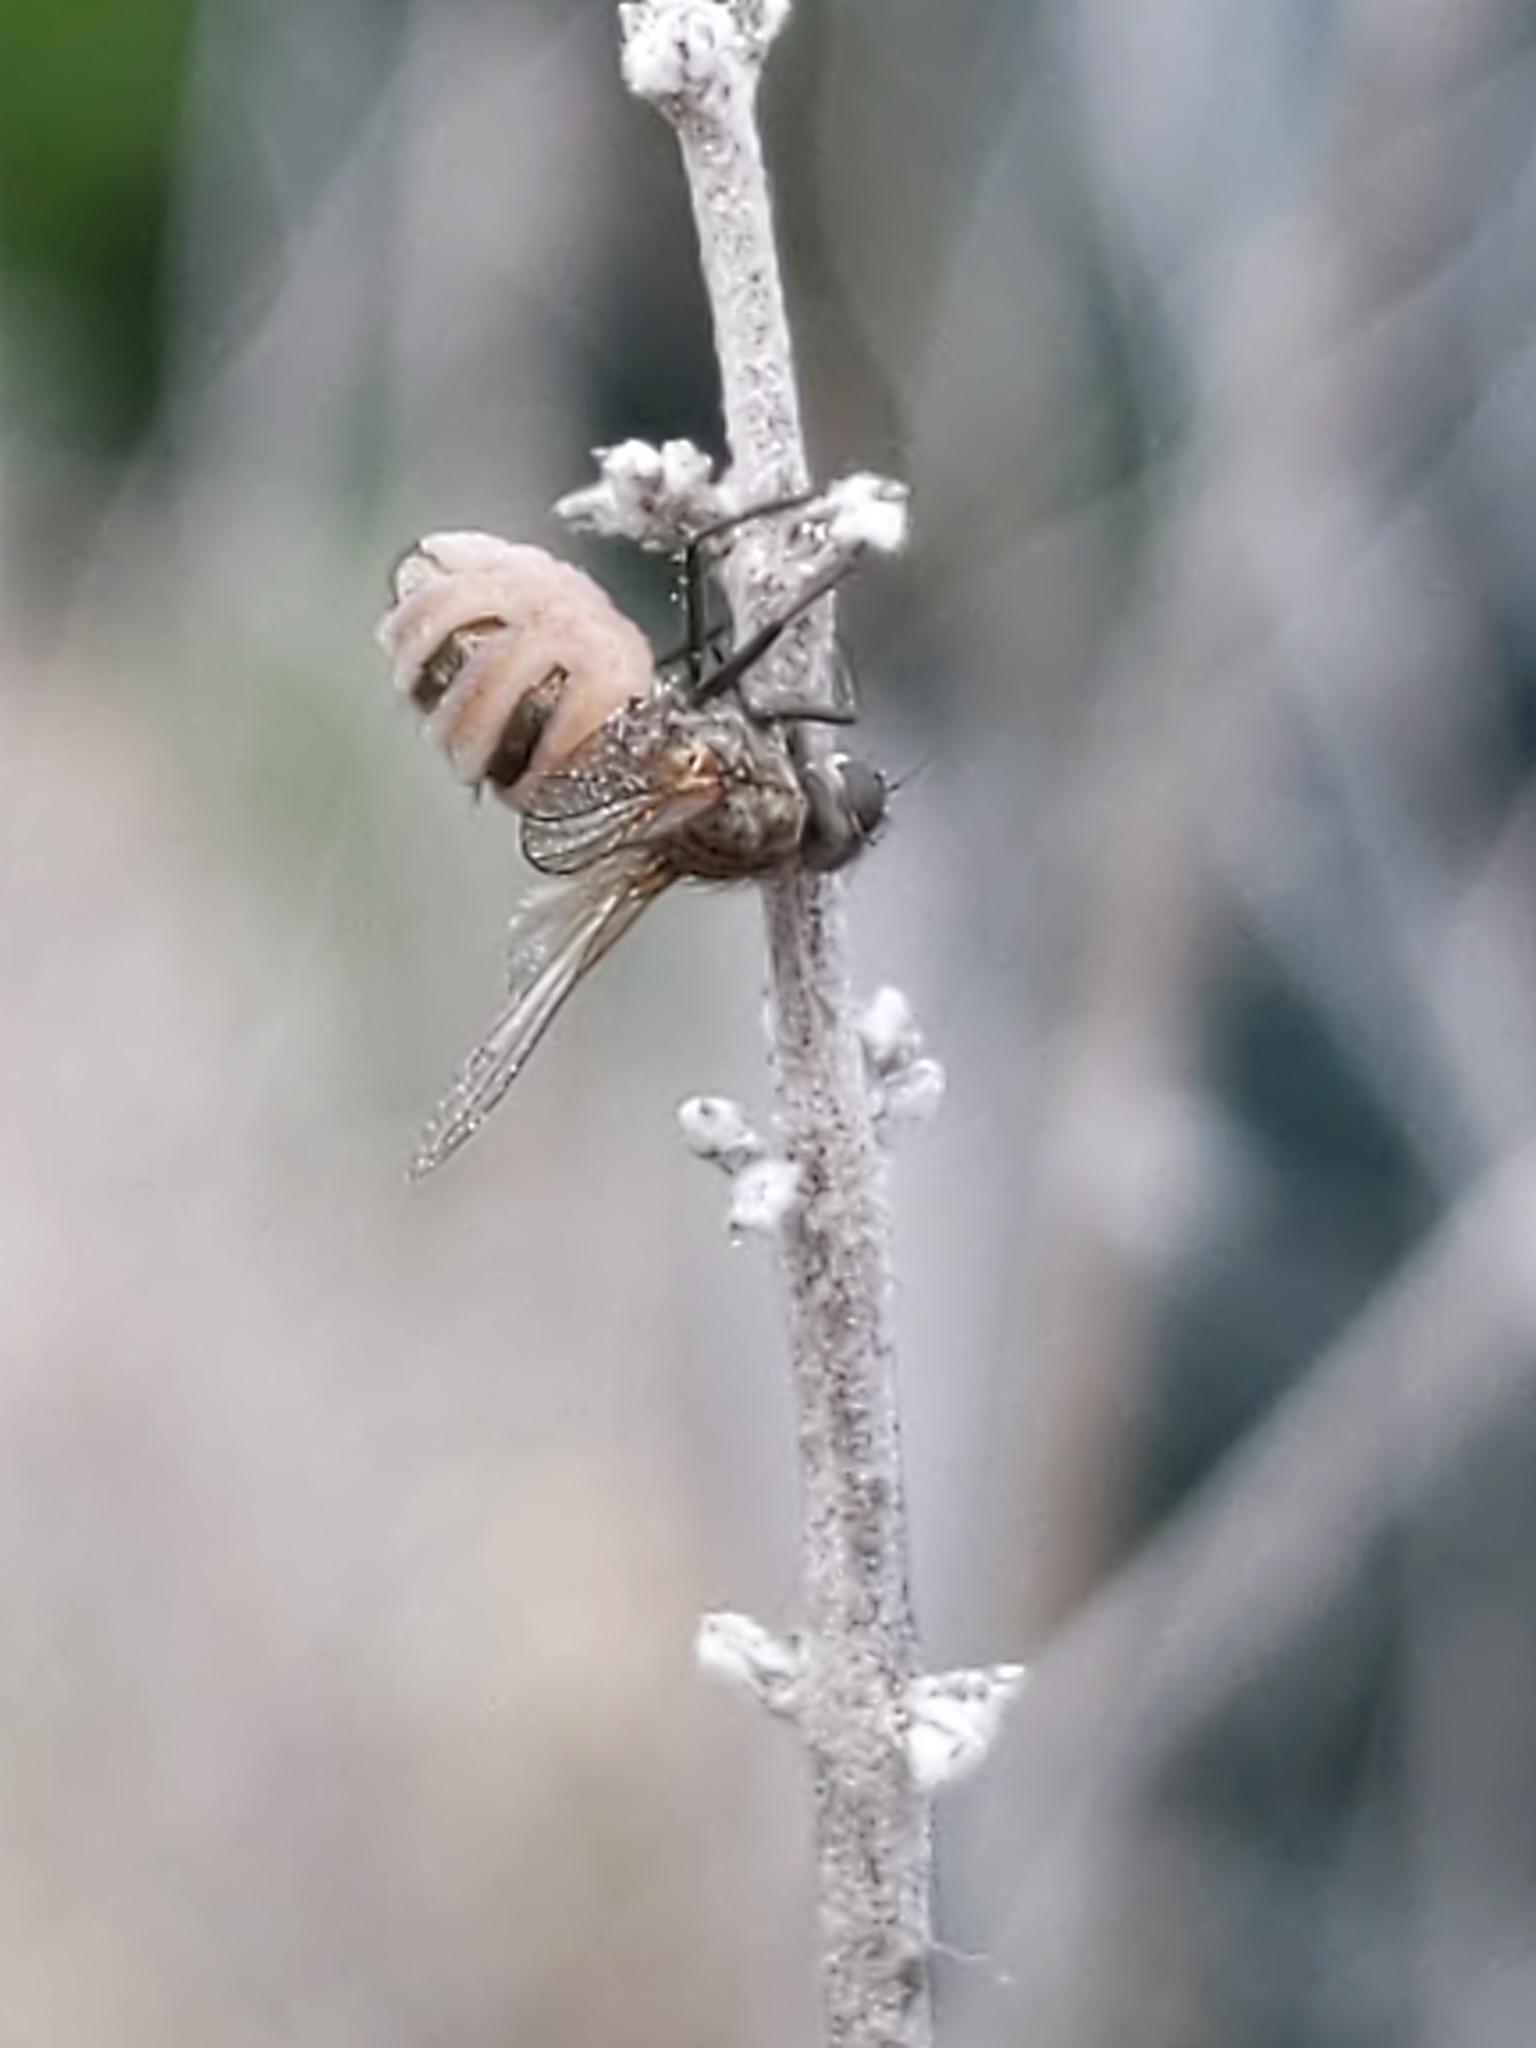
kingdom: Fungi
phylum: Entomophthoromycota
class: Entomophthoromycetes
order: Entomophthorales
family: Entomophthoraceae
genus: Entomophthora
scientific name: Entomophthora
